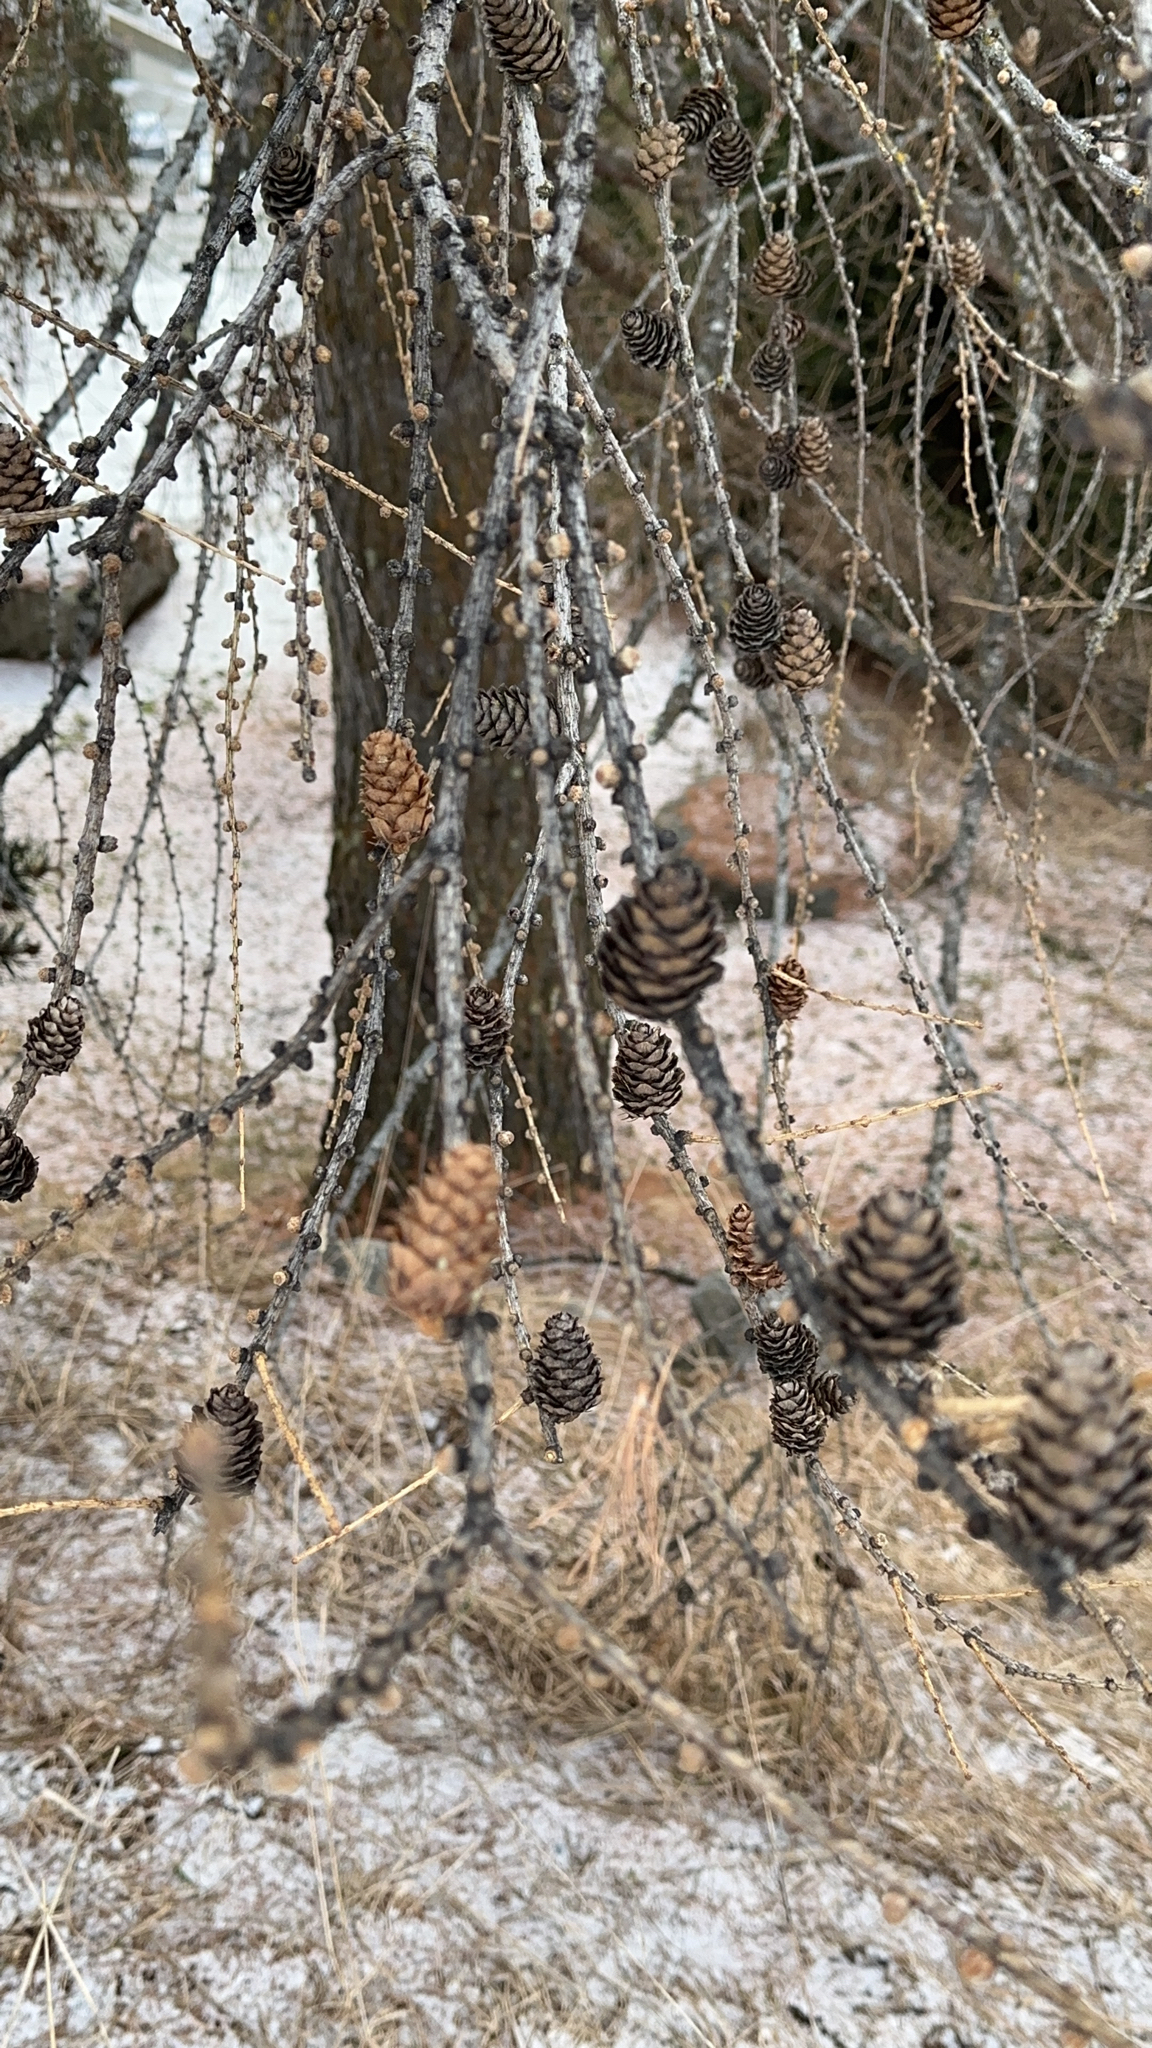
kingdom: Plantae
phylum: Tracheophyta
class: Pinopsida
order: Pinales
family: Pinaceae
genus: Larix
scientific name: Larix decidua
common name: European larch
